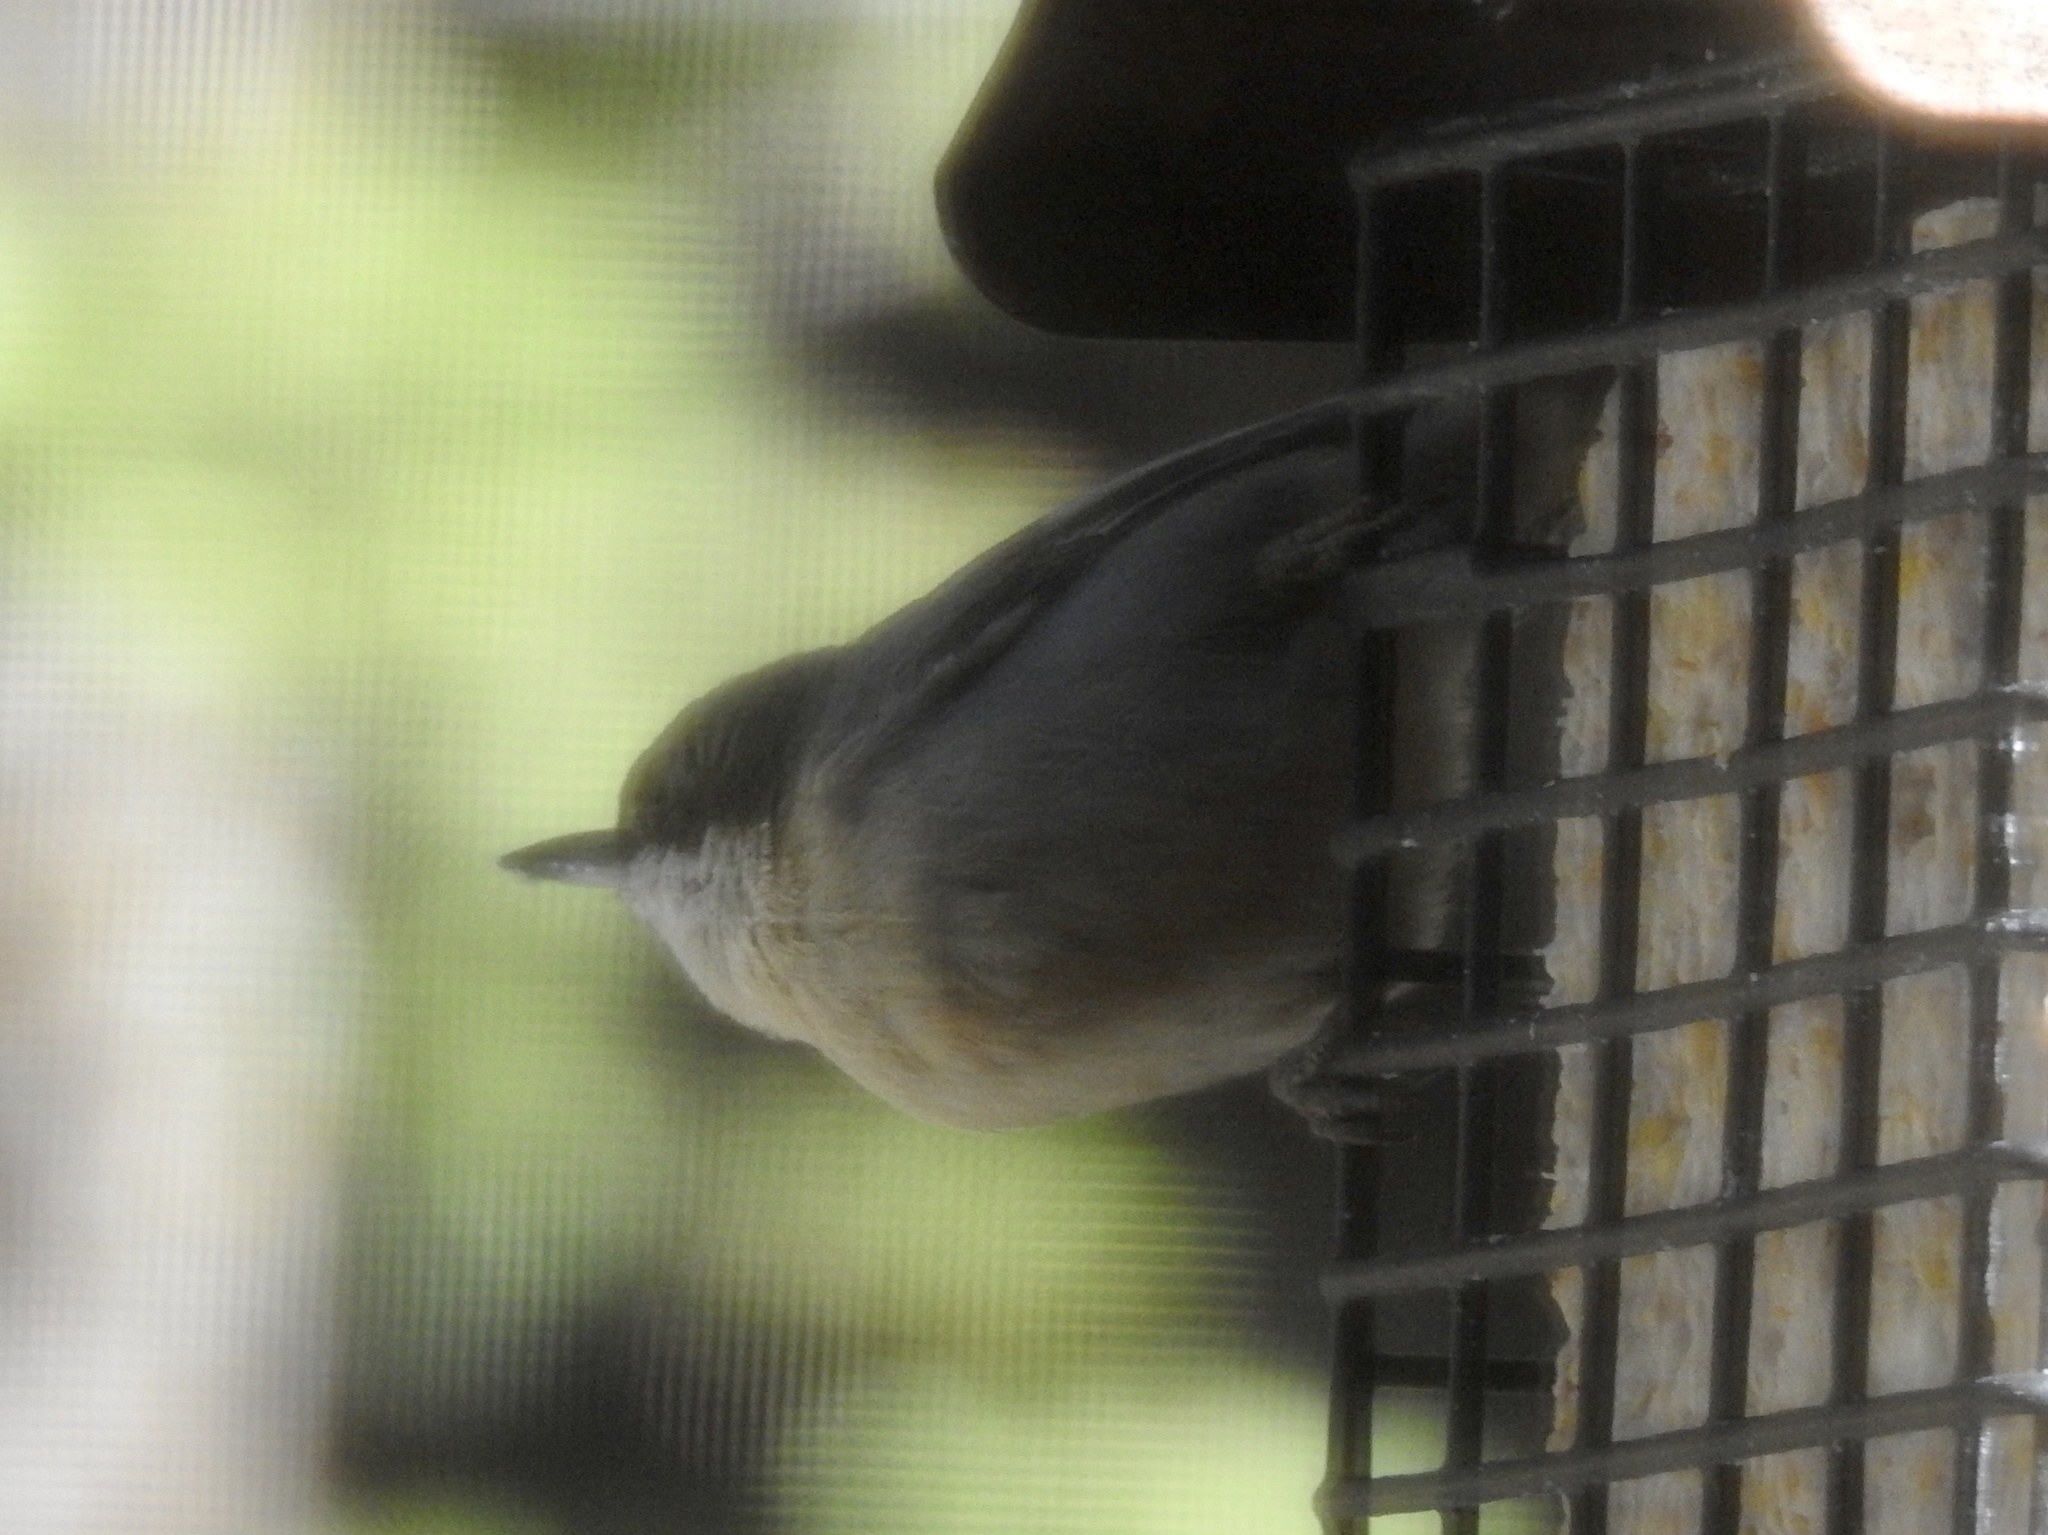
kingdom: Animalia
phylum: Chordata
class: Aves
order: Passeriformes
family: Sittidae
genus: Sitta
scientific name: Sitta pygmaea
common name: Pygmy nuthatch
